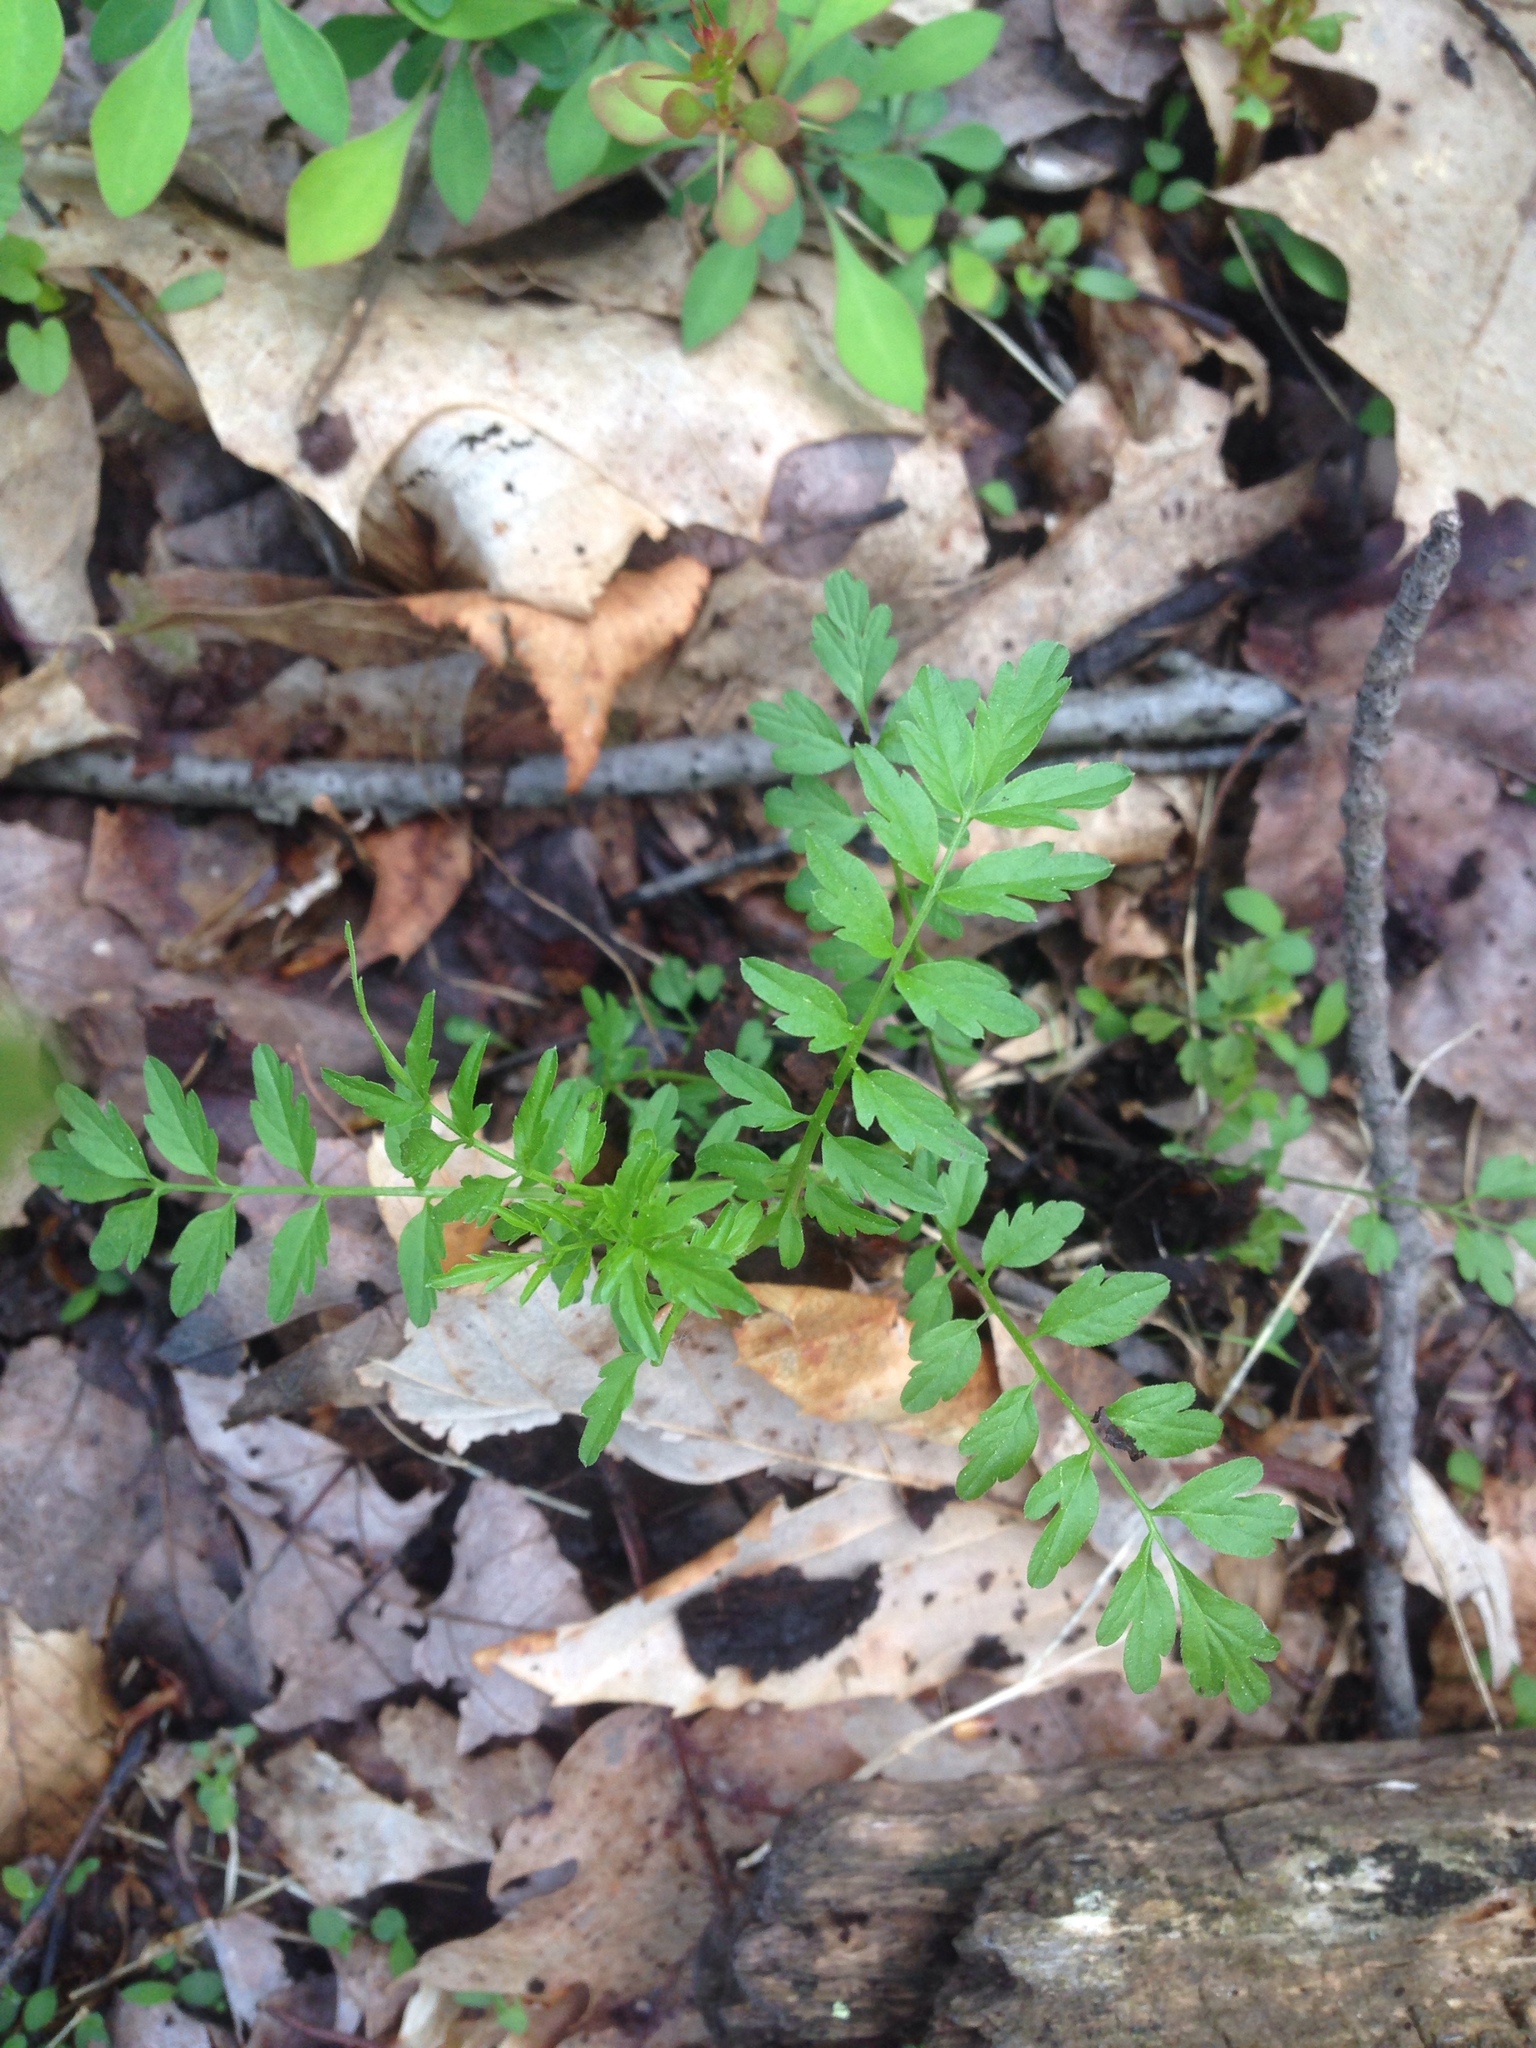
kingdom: Plantae
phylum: Tracheophyta
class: Magnoliopsida
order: Brassicales
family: Brassicaceae
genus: Cardamine
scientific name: Cardamine impatiens
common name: Narrow-leaved bitter-cress
